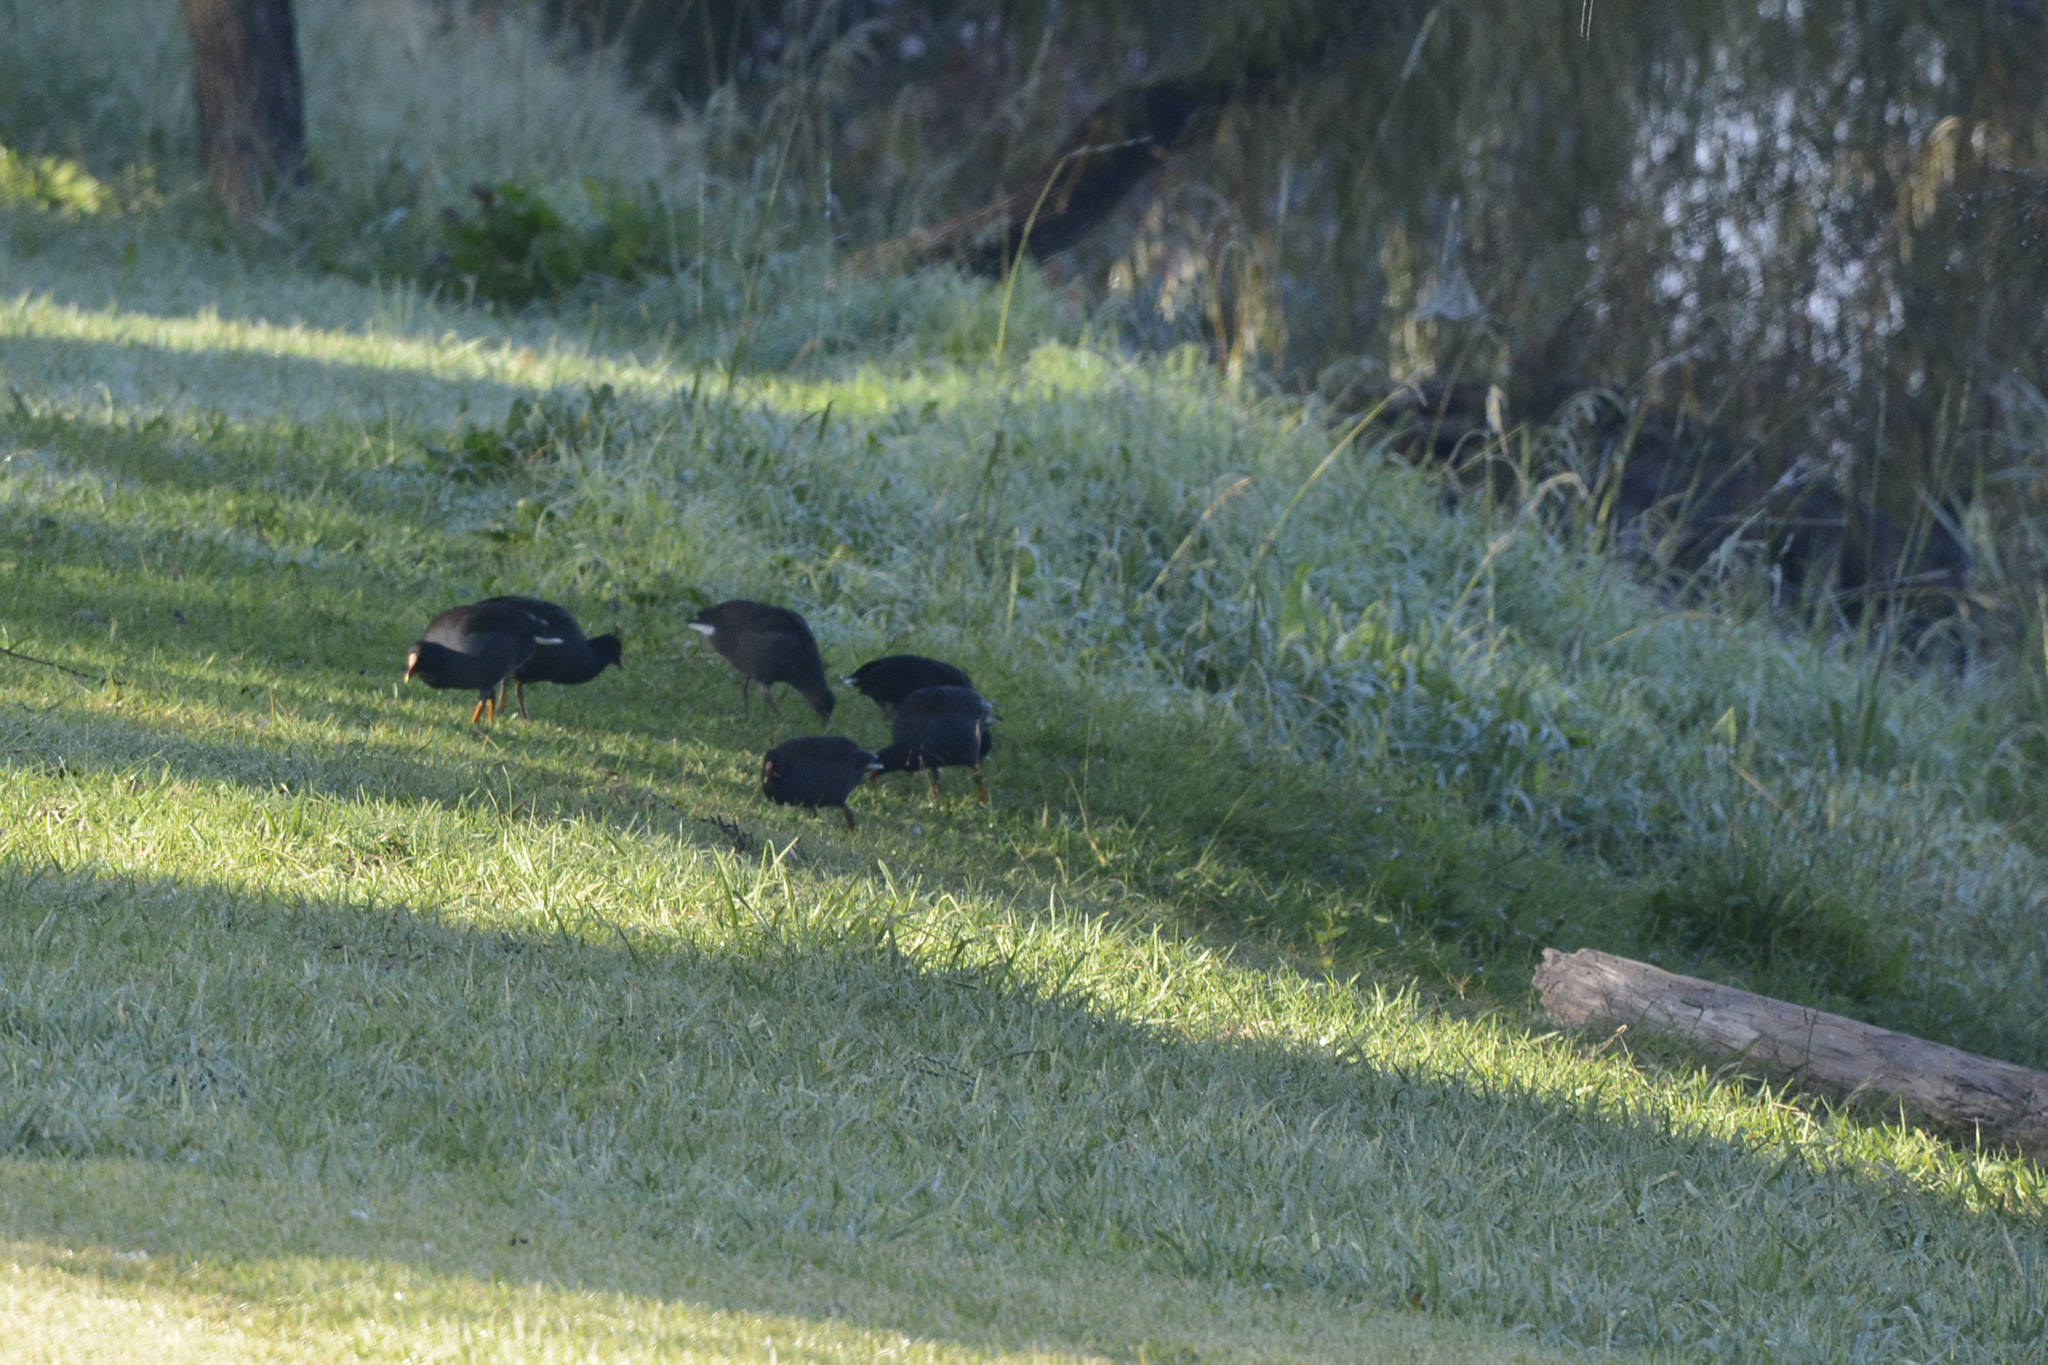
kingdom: Animalia
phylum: Chordata
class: Aves
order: Gruiformes
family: Rallidae
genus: Gallinula
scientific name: Gallinula tenebrosa
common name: Dusky moorhen
